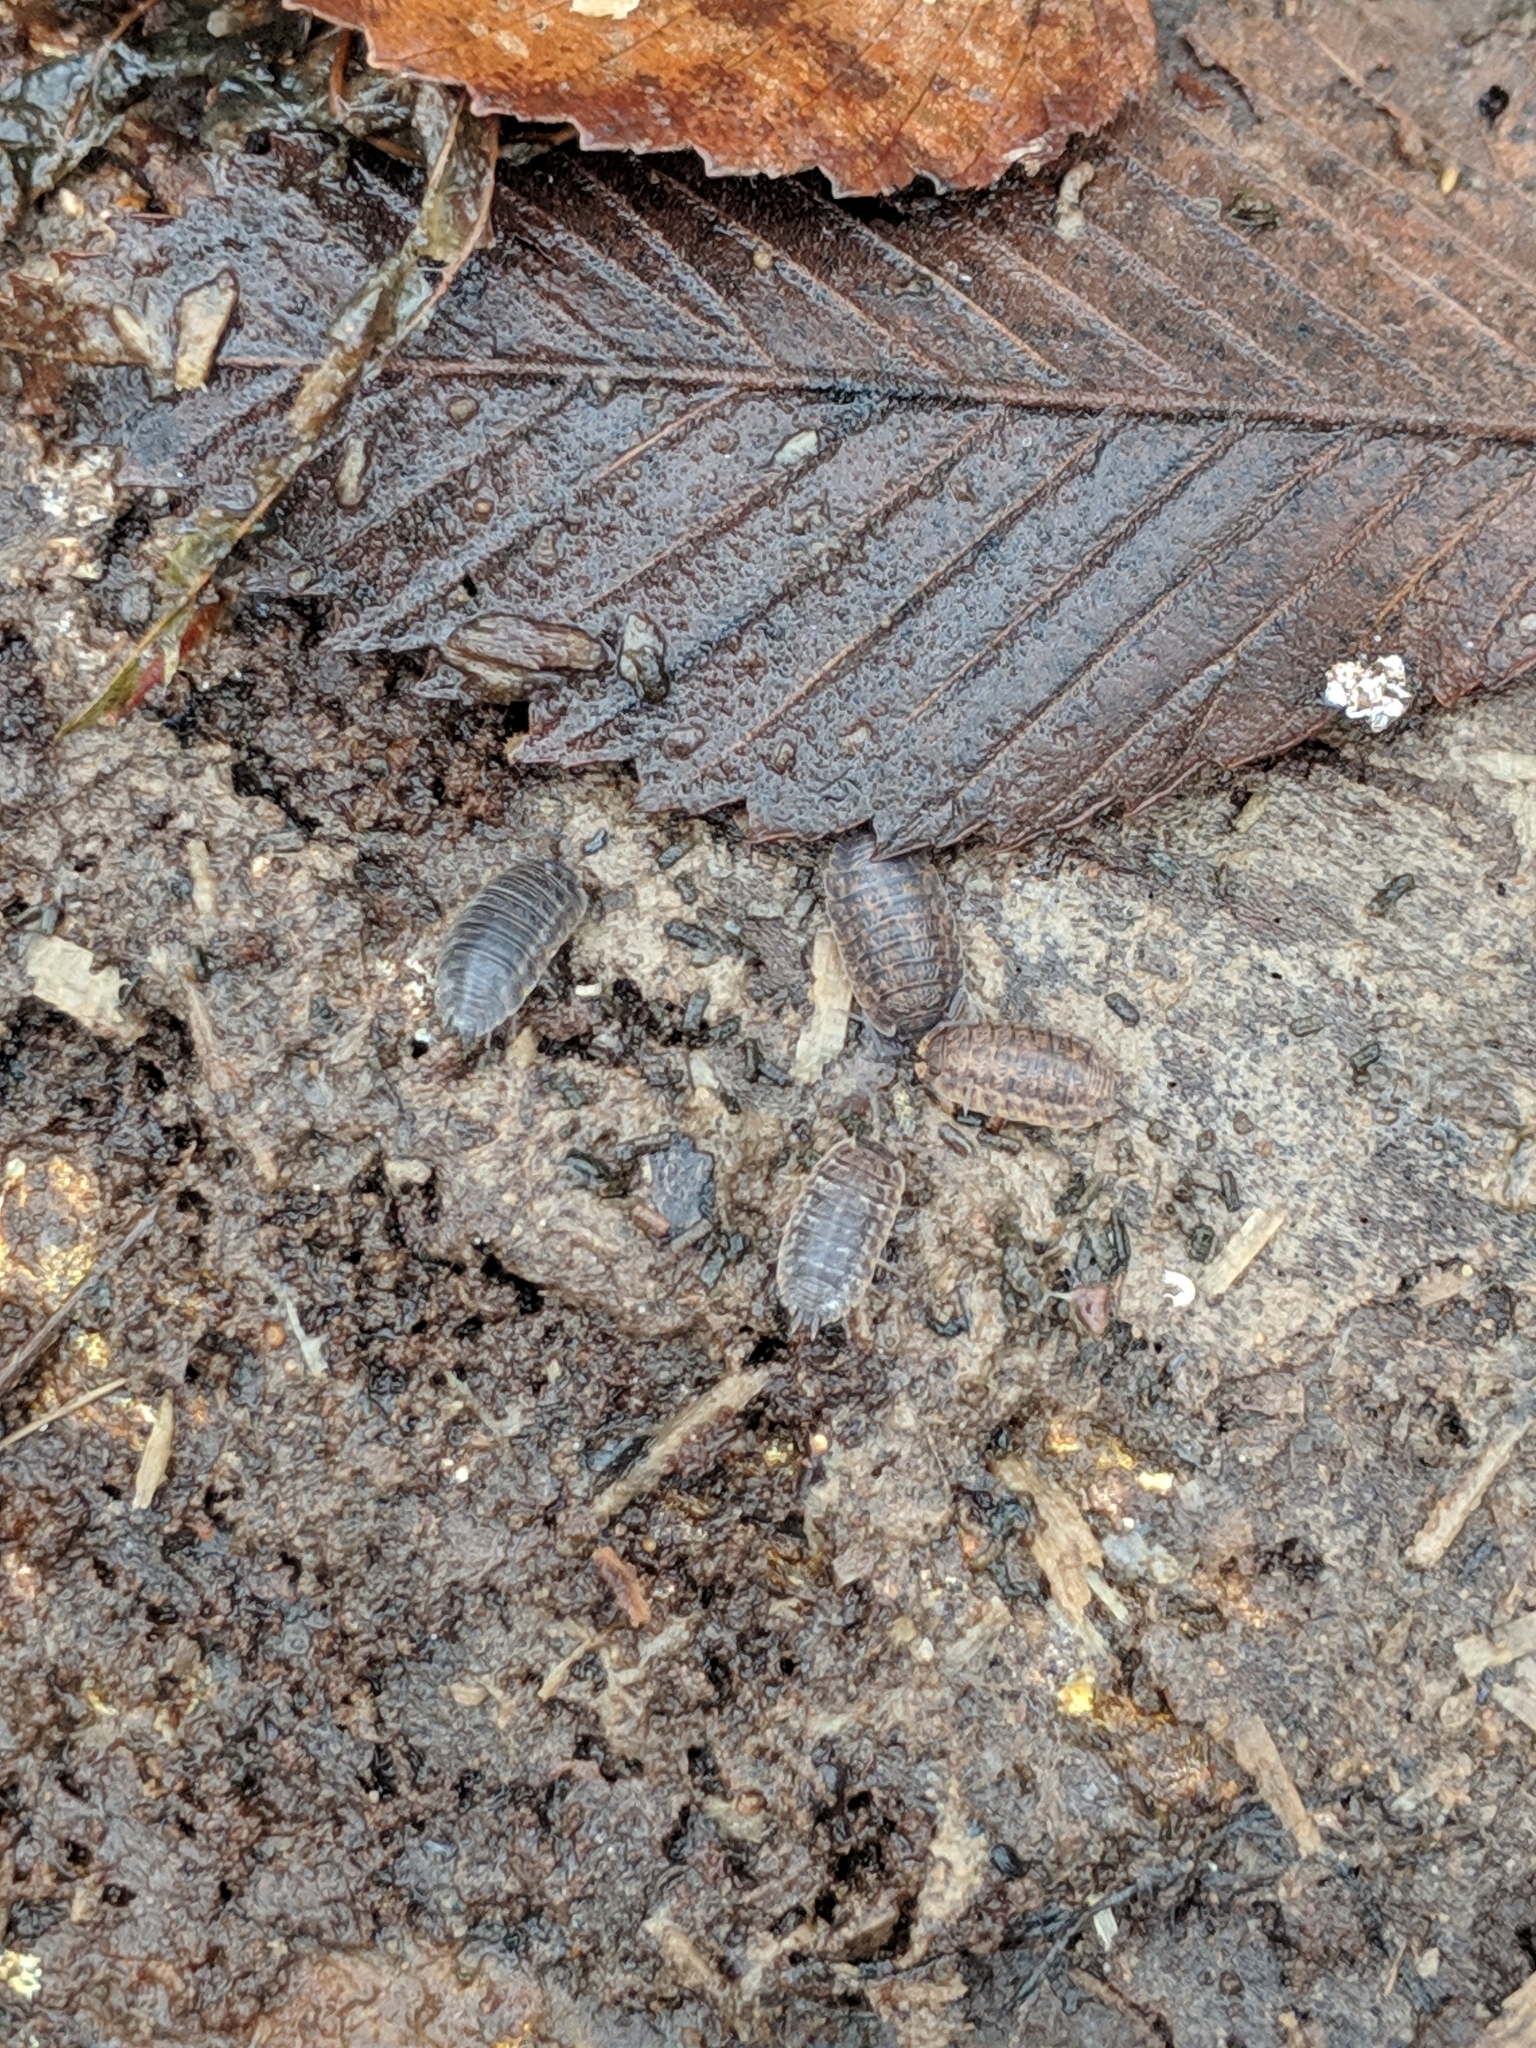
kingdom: Animalia
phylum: Arthropoda
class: Malacostraca
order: Isopoda
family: Trachelipodidae
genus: Trachelipus
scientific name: Trachelipus rathkii
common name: Isopod
